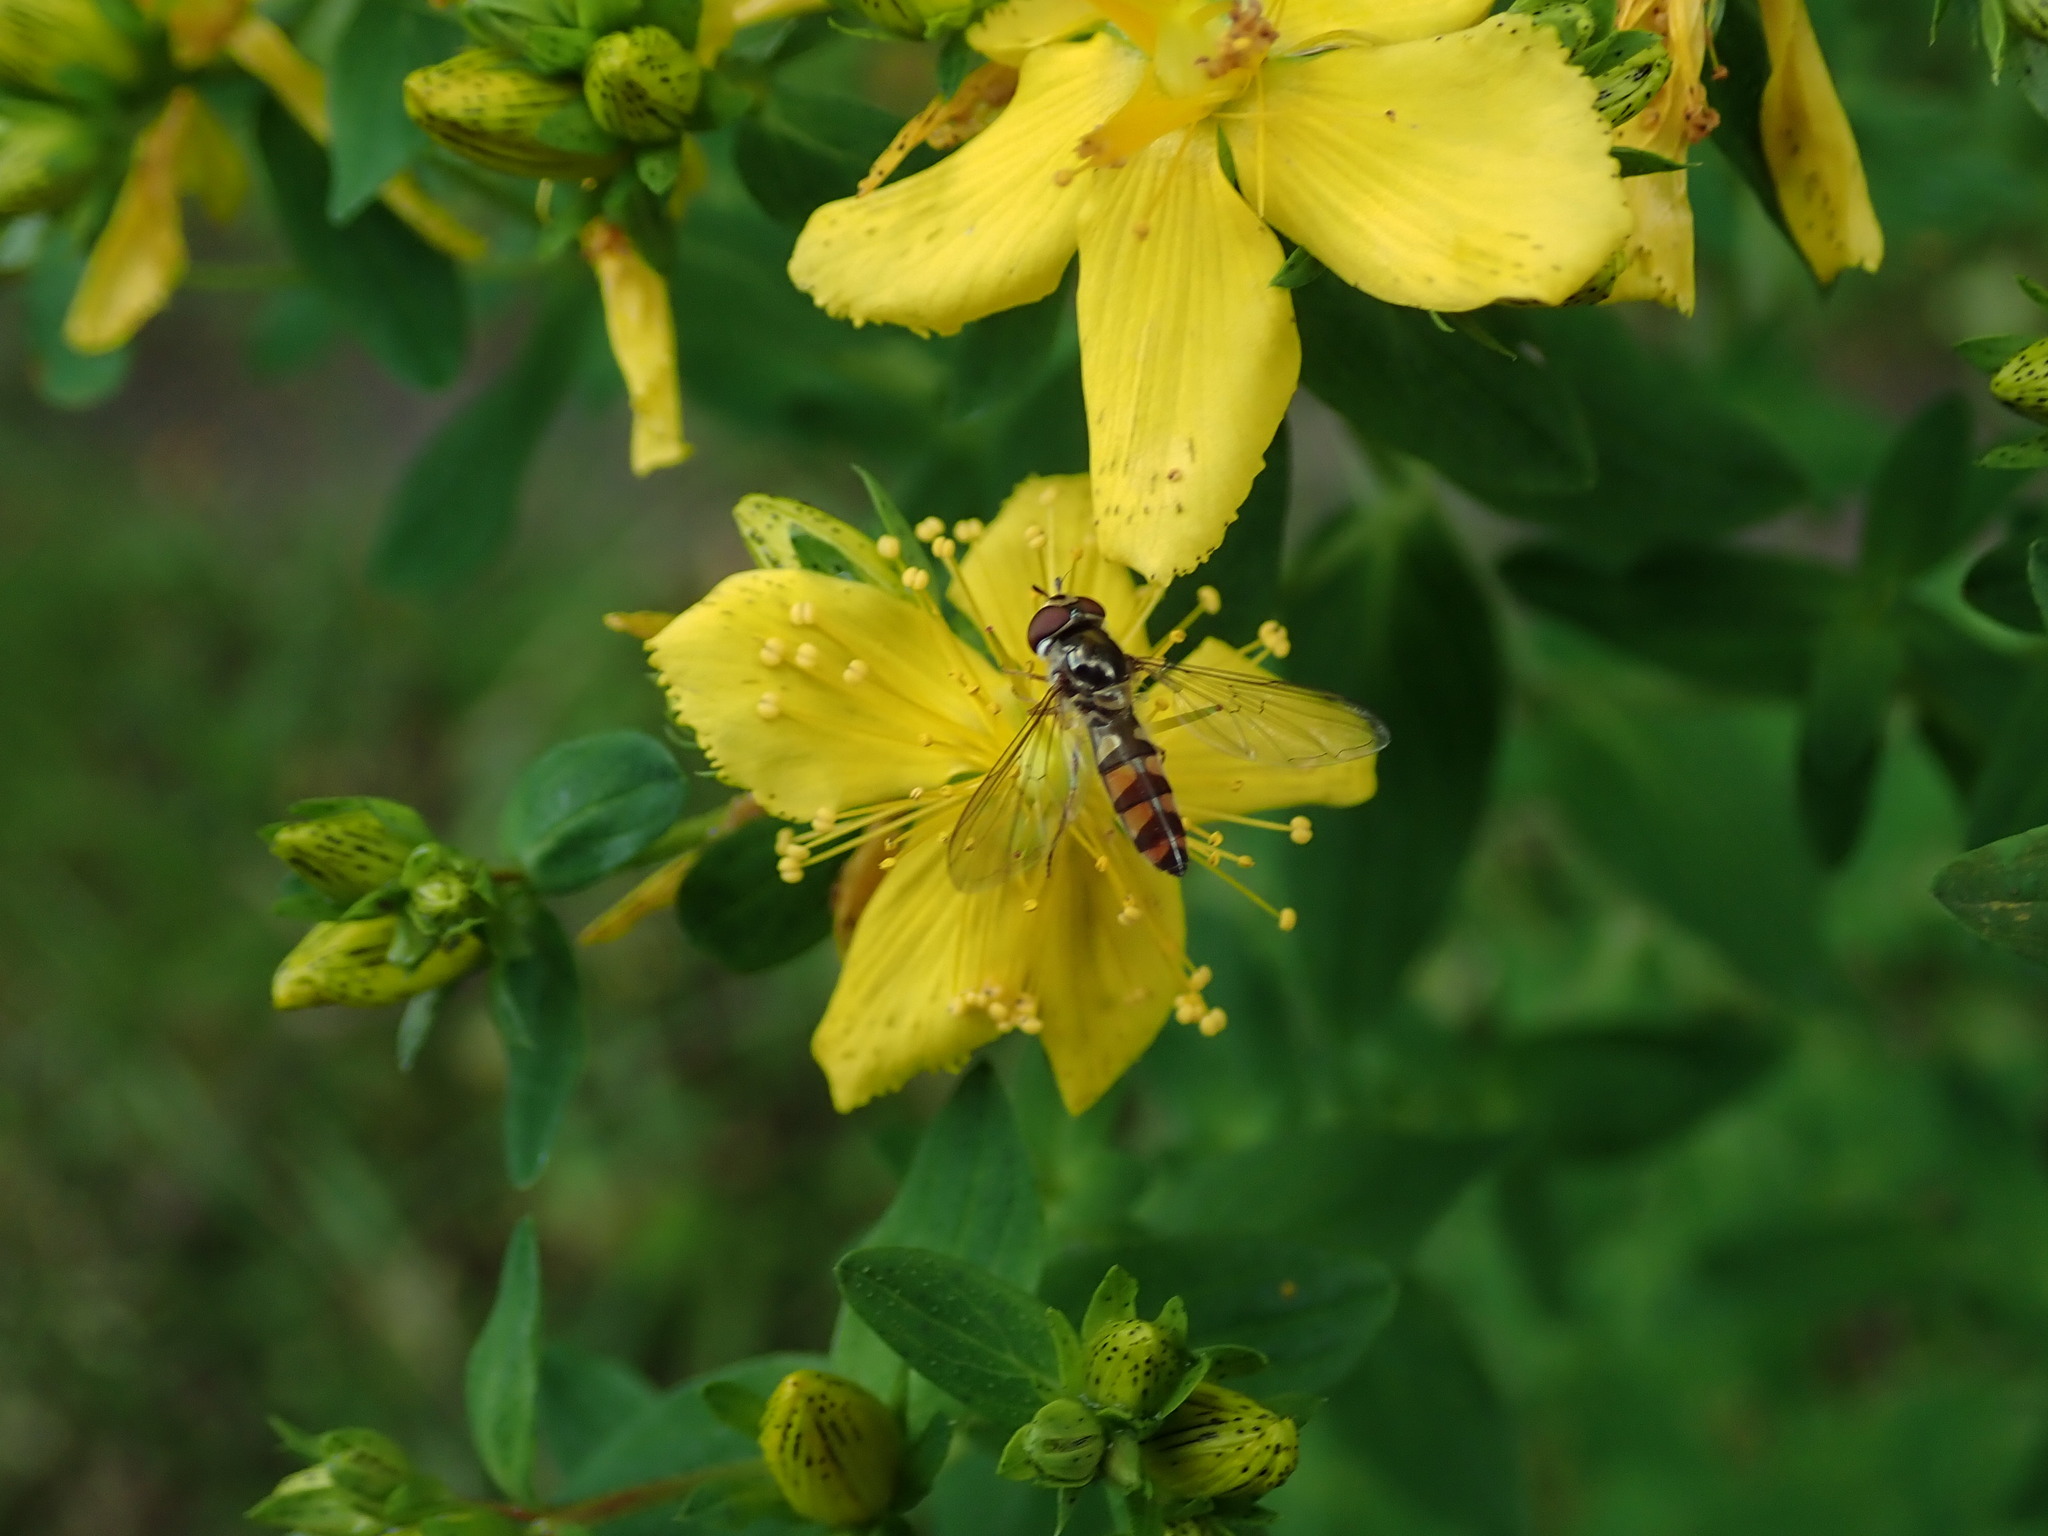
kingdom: Animalia
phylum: Arthropoda
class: Insecta
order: Diptera
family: Syrphidae
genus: Meliscaeva
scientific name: Meliscaeva auricollis
